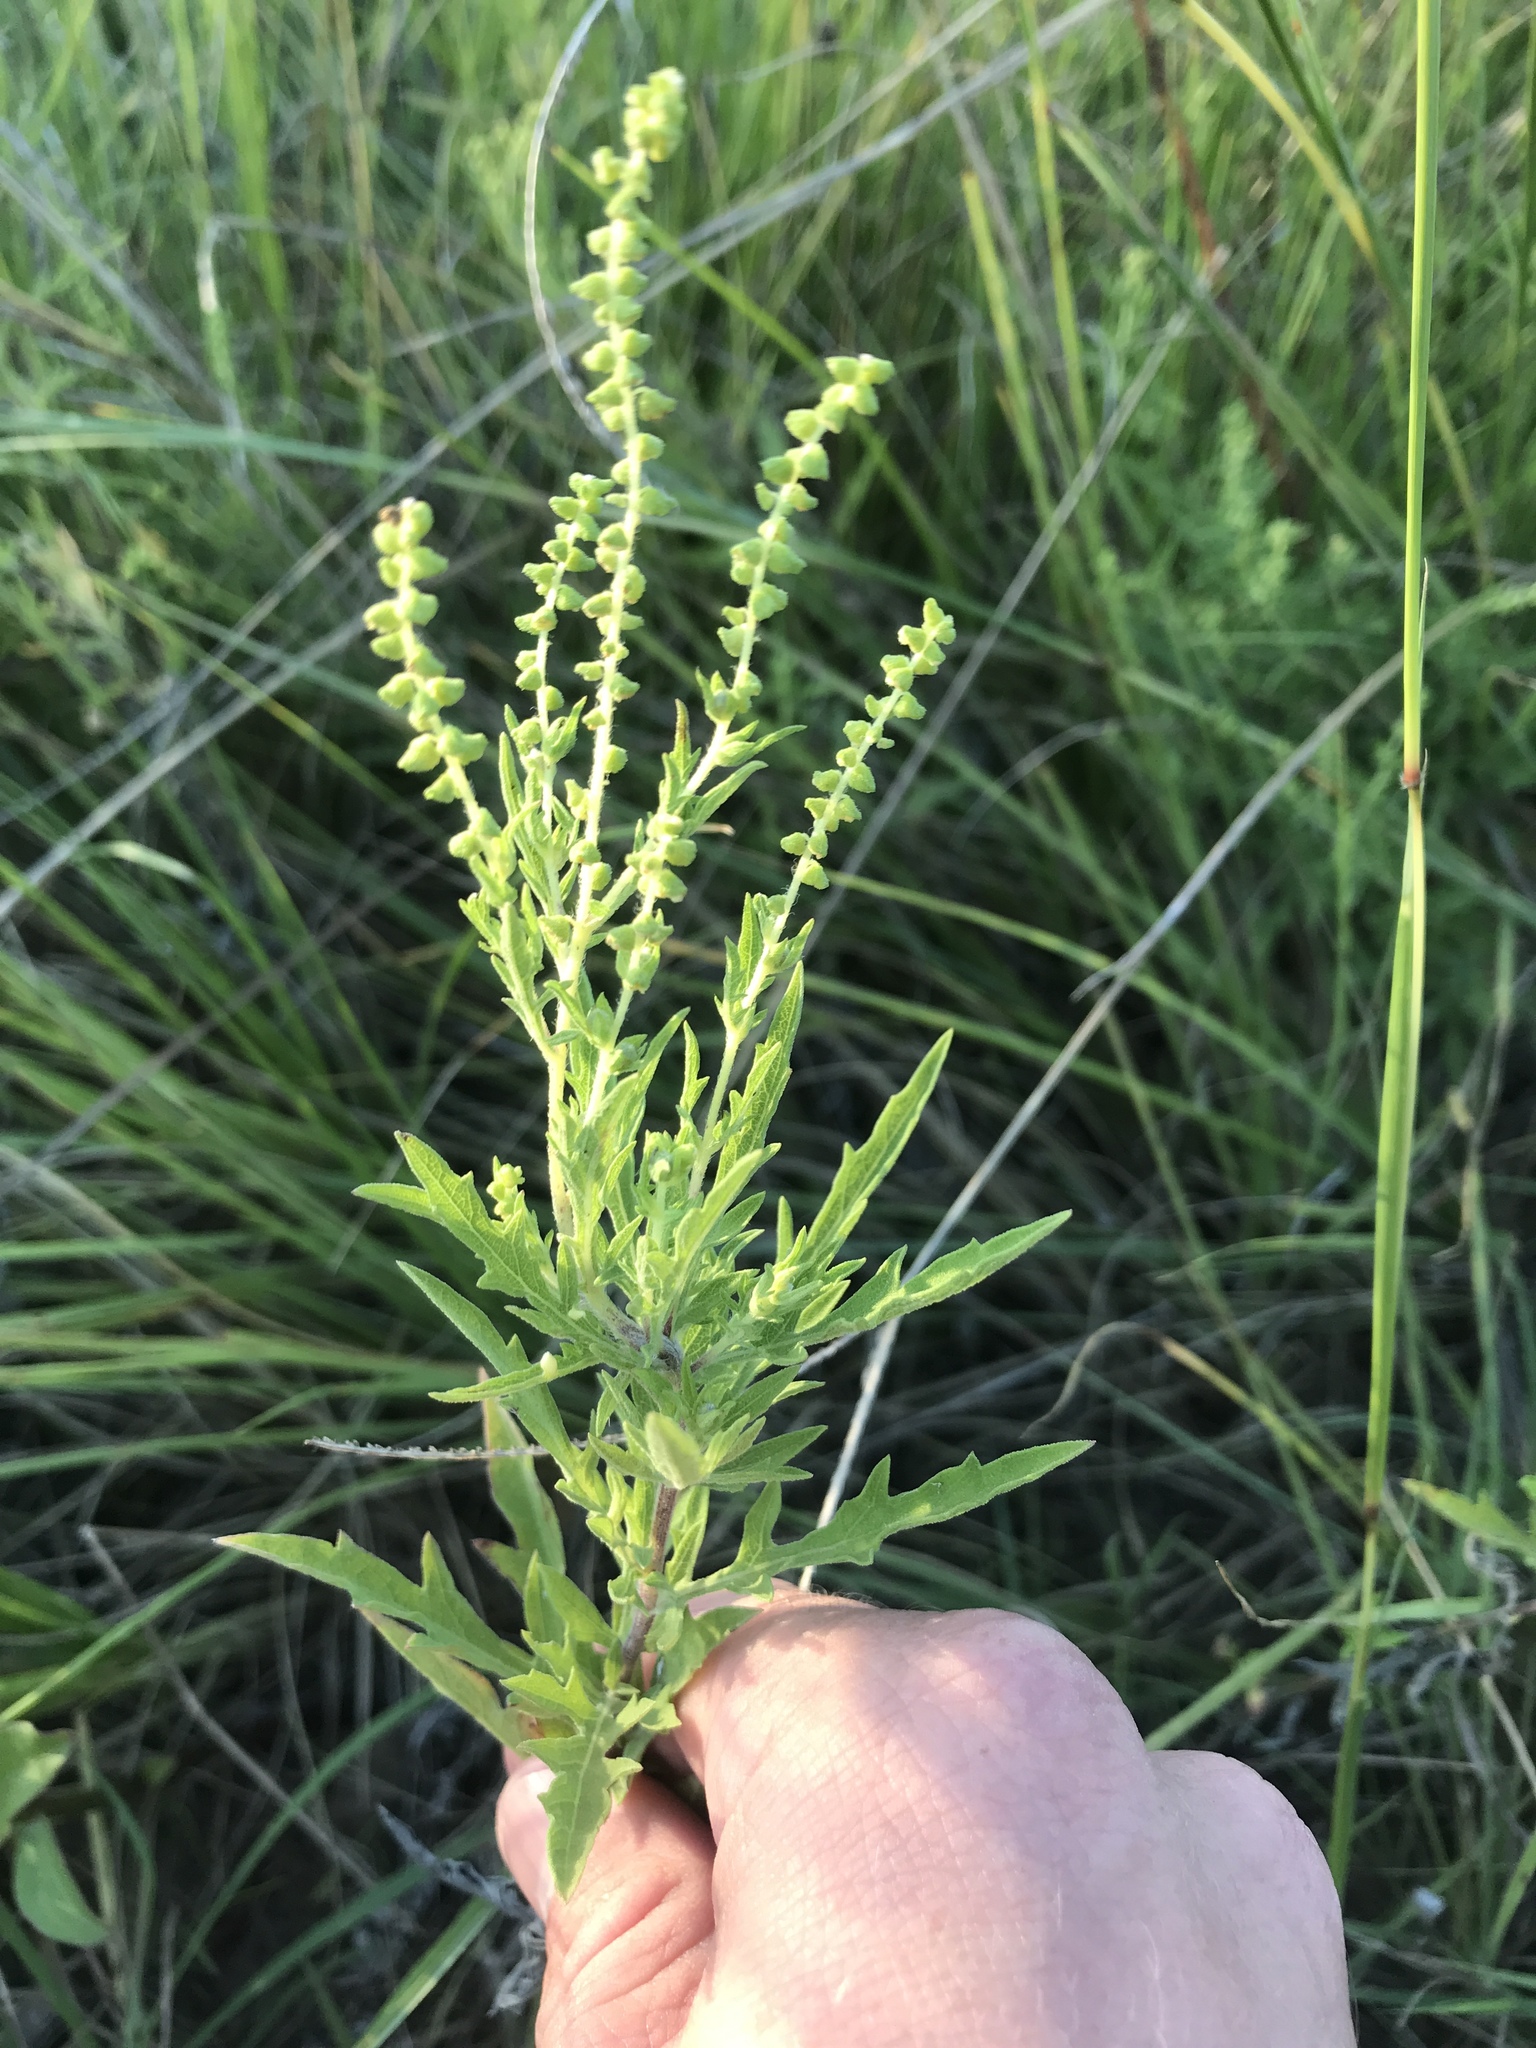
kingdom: Plantae
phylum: Tracheophyta
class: Magnoliopsida
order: Asterales
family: Asteraceae
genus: Ambrosia
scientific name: Ambrosia psilostachya
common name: Perennial ragweed
